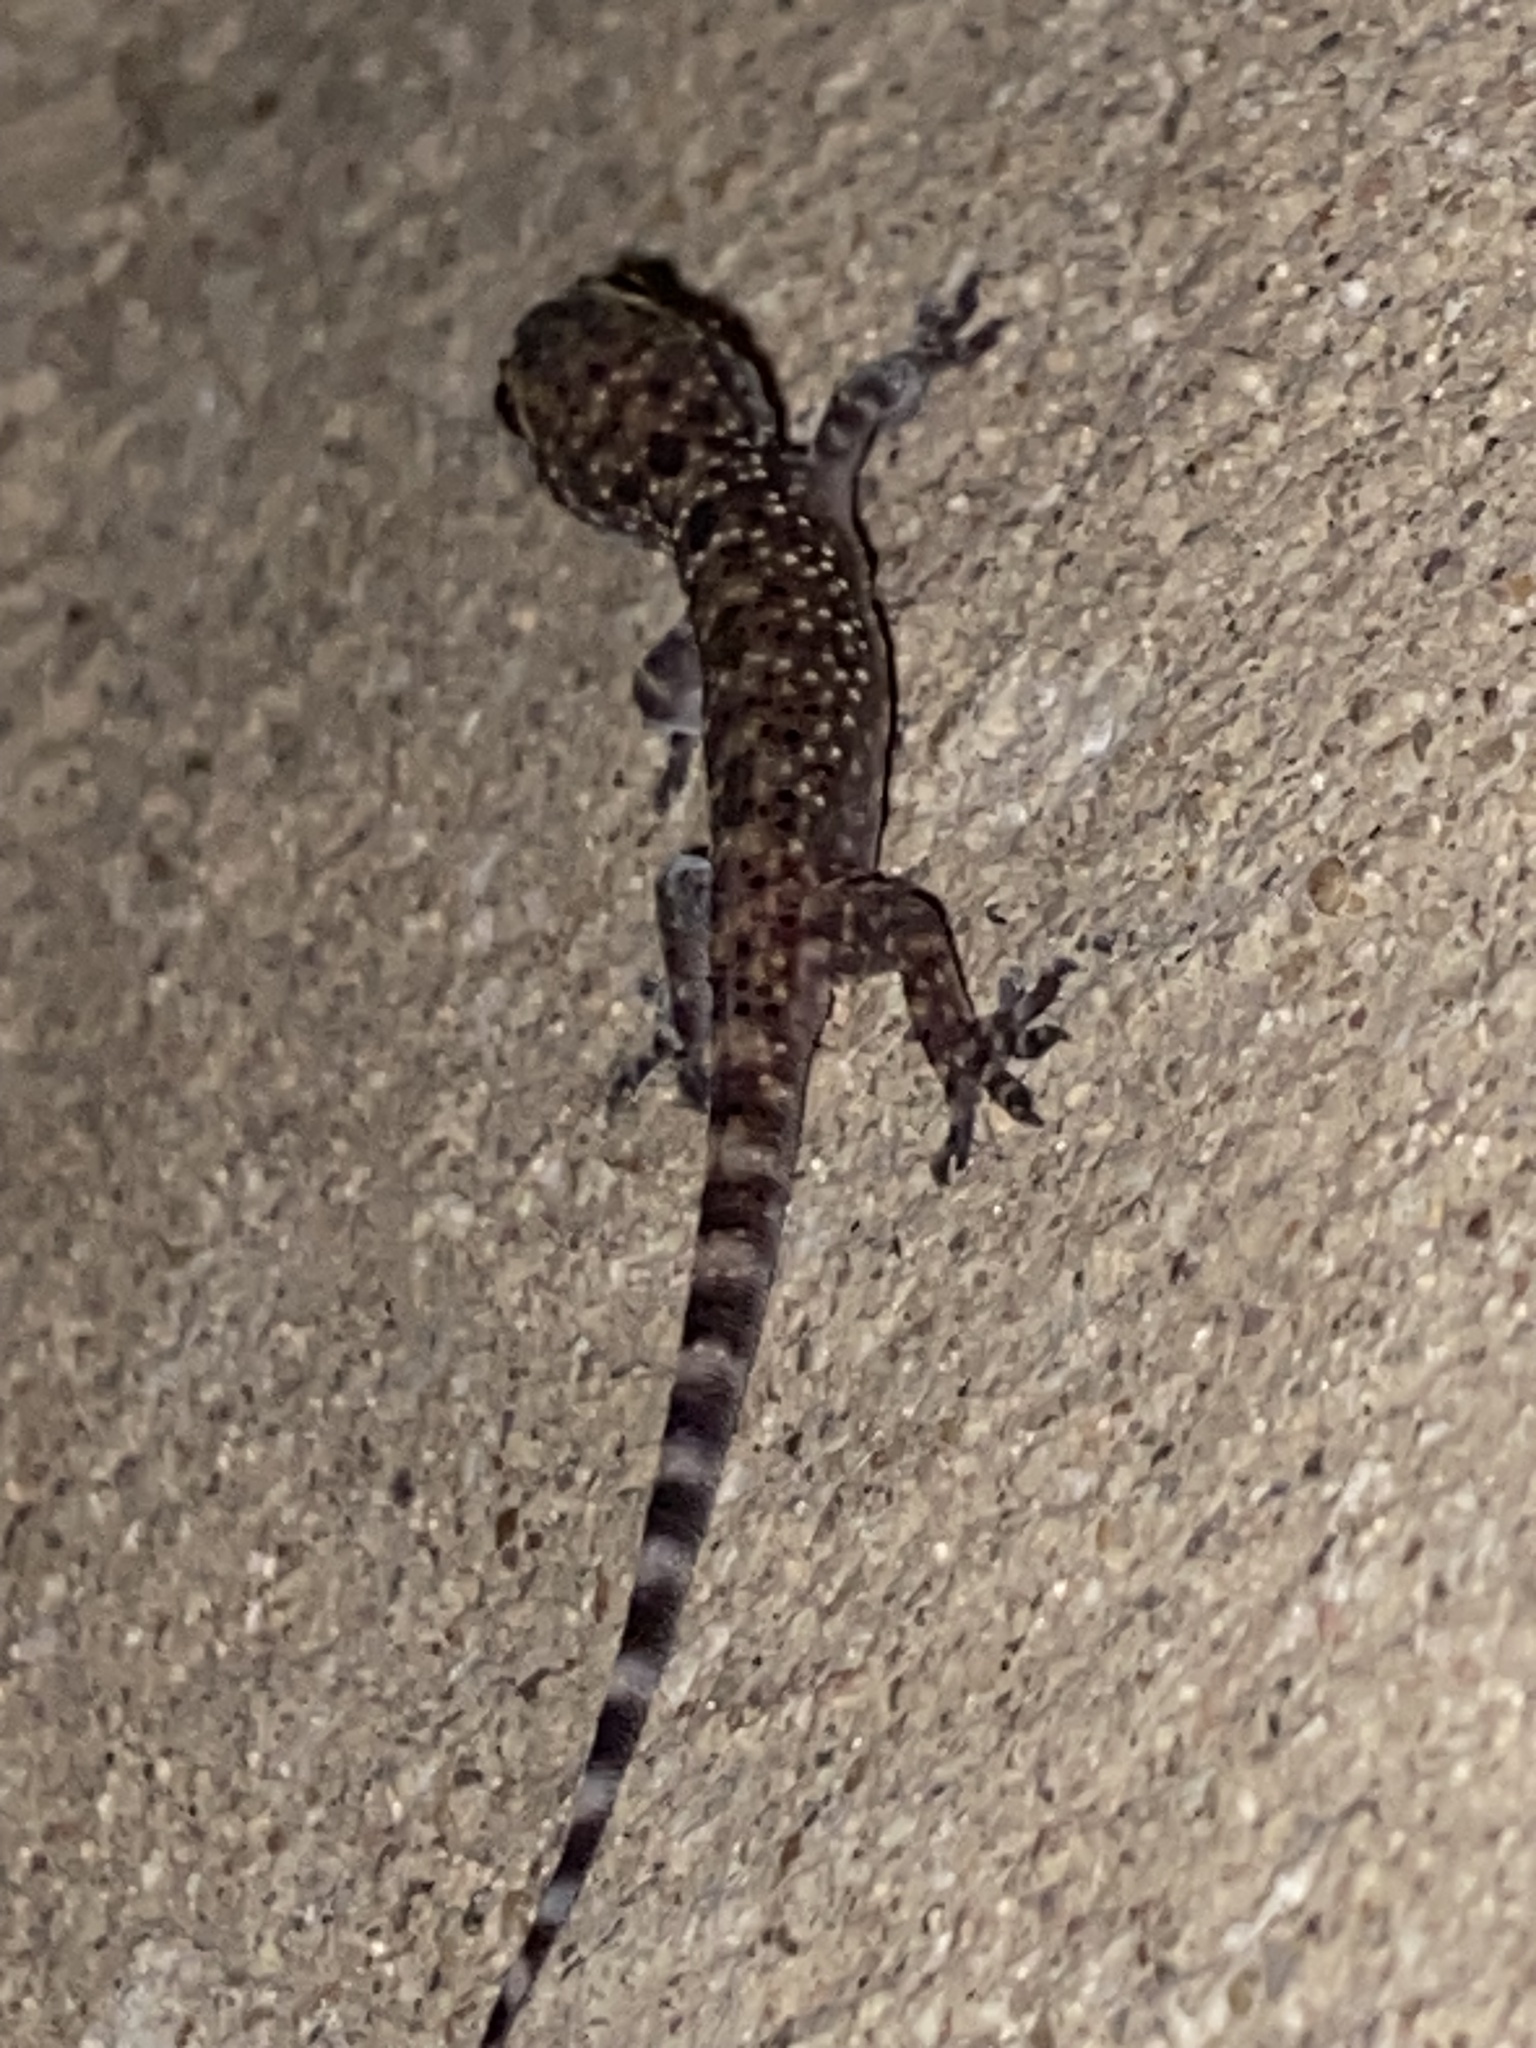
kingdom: Animalia
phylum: Chordata
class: Squamata
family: Gekkonidae
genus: Hemidactylus
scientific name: Hemidactylus turcicus
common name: Turkish gecko
